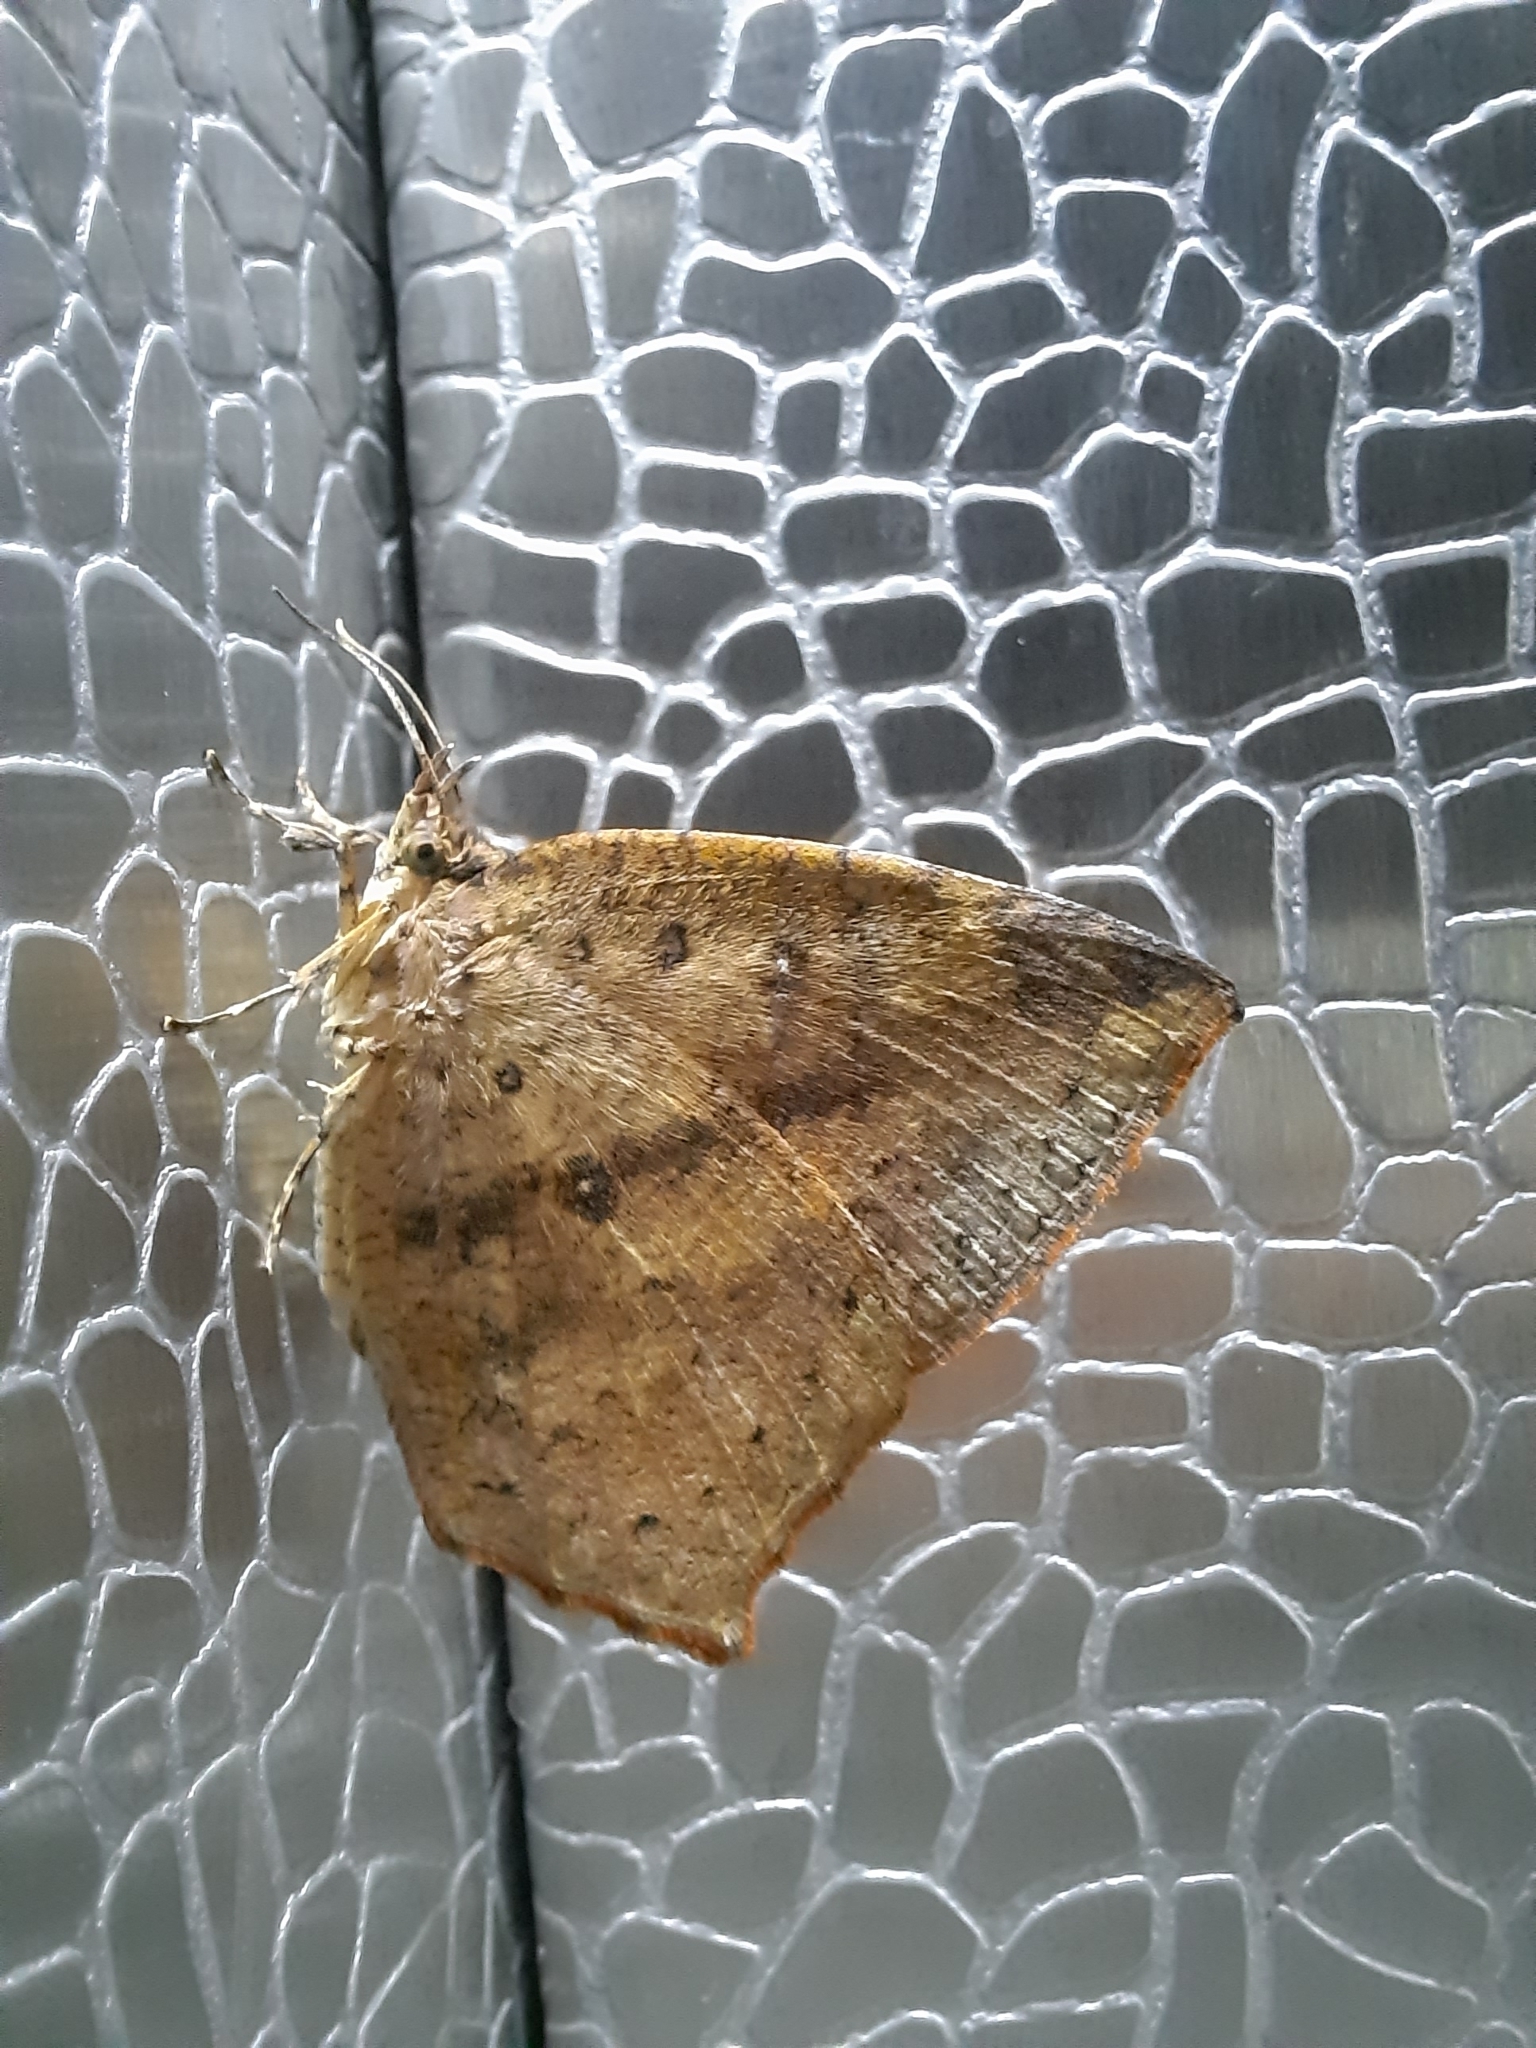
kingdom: Animalia
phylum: Arthropoda
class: Insecta
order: Lepidoptera
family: Callidulidae
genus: Tetragonus
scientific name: Tetragonus catamitus
